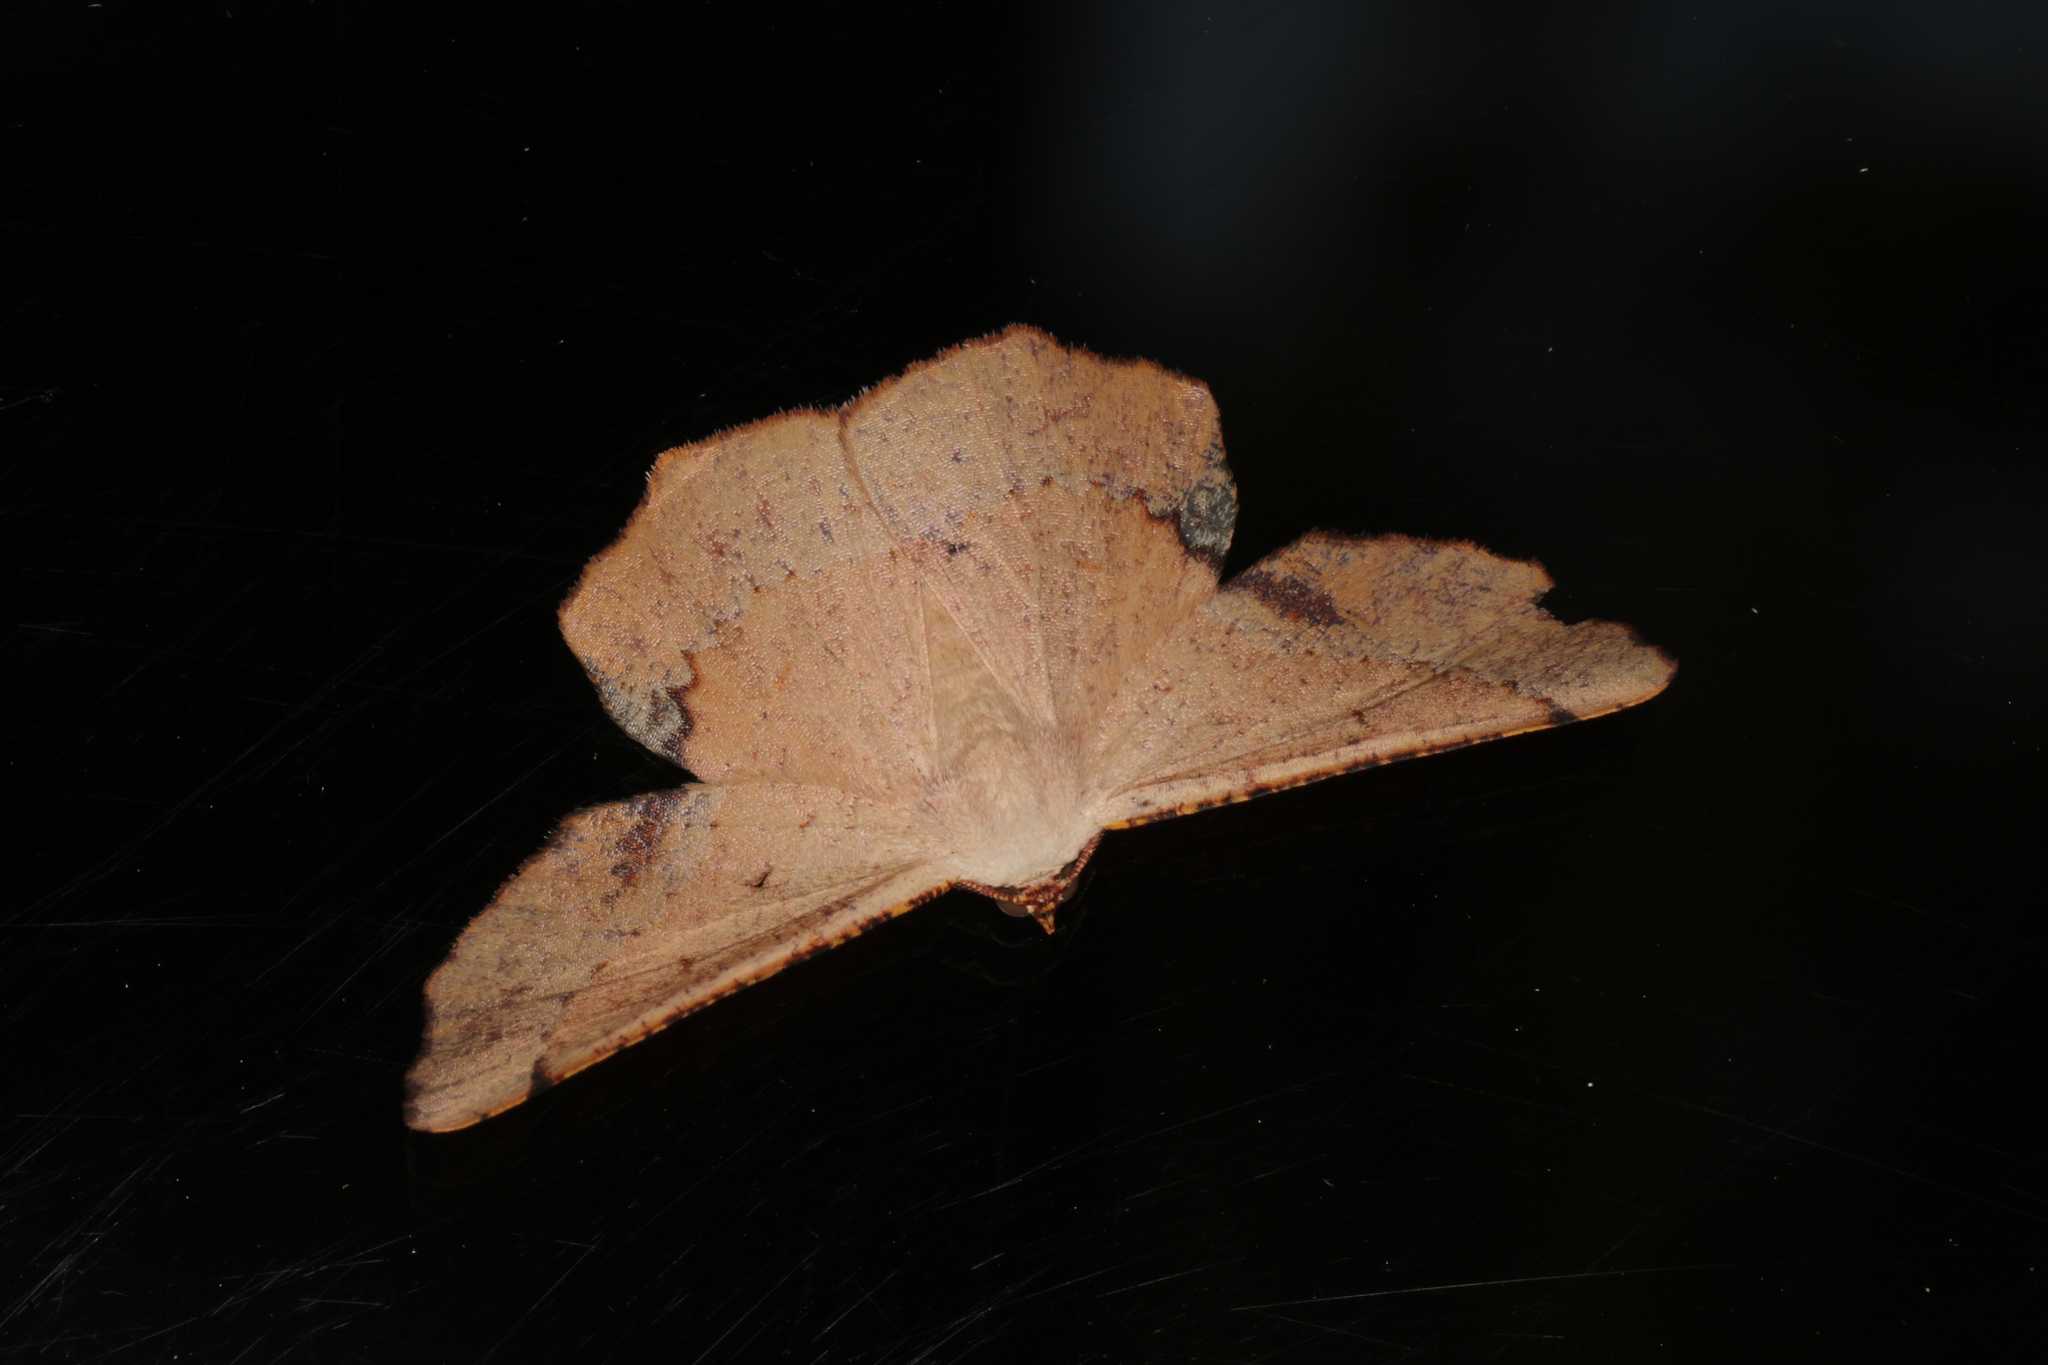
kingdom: Animalia
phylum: Arthropoda
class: Insecta
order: Lepidoptera
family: Geometridae
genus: Cernia
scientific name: Cernia amyclaria
